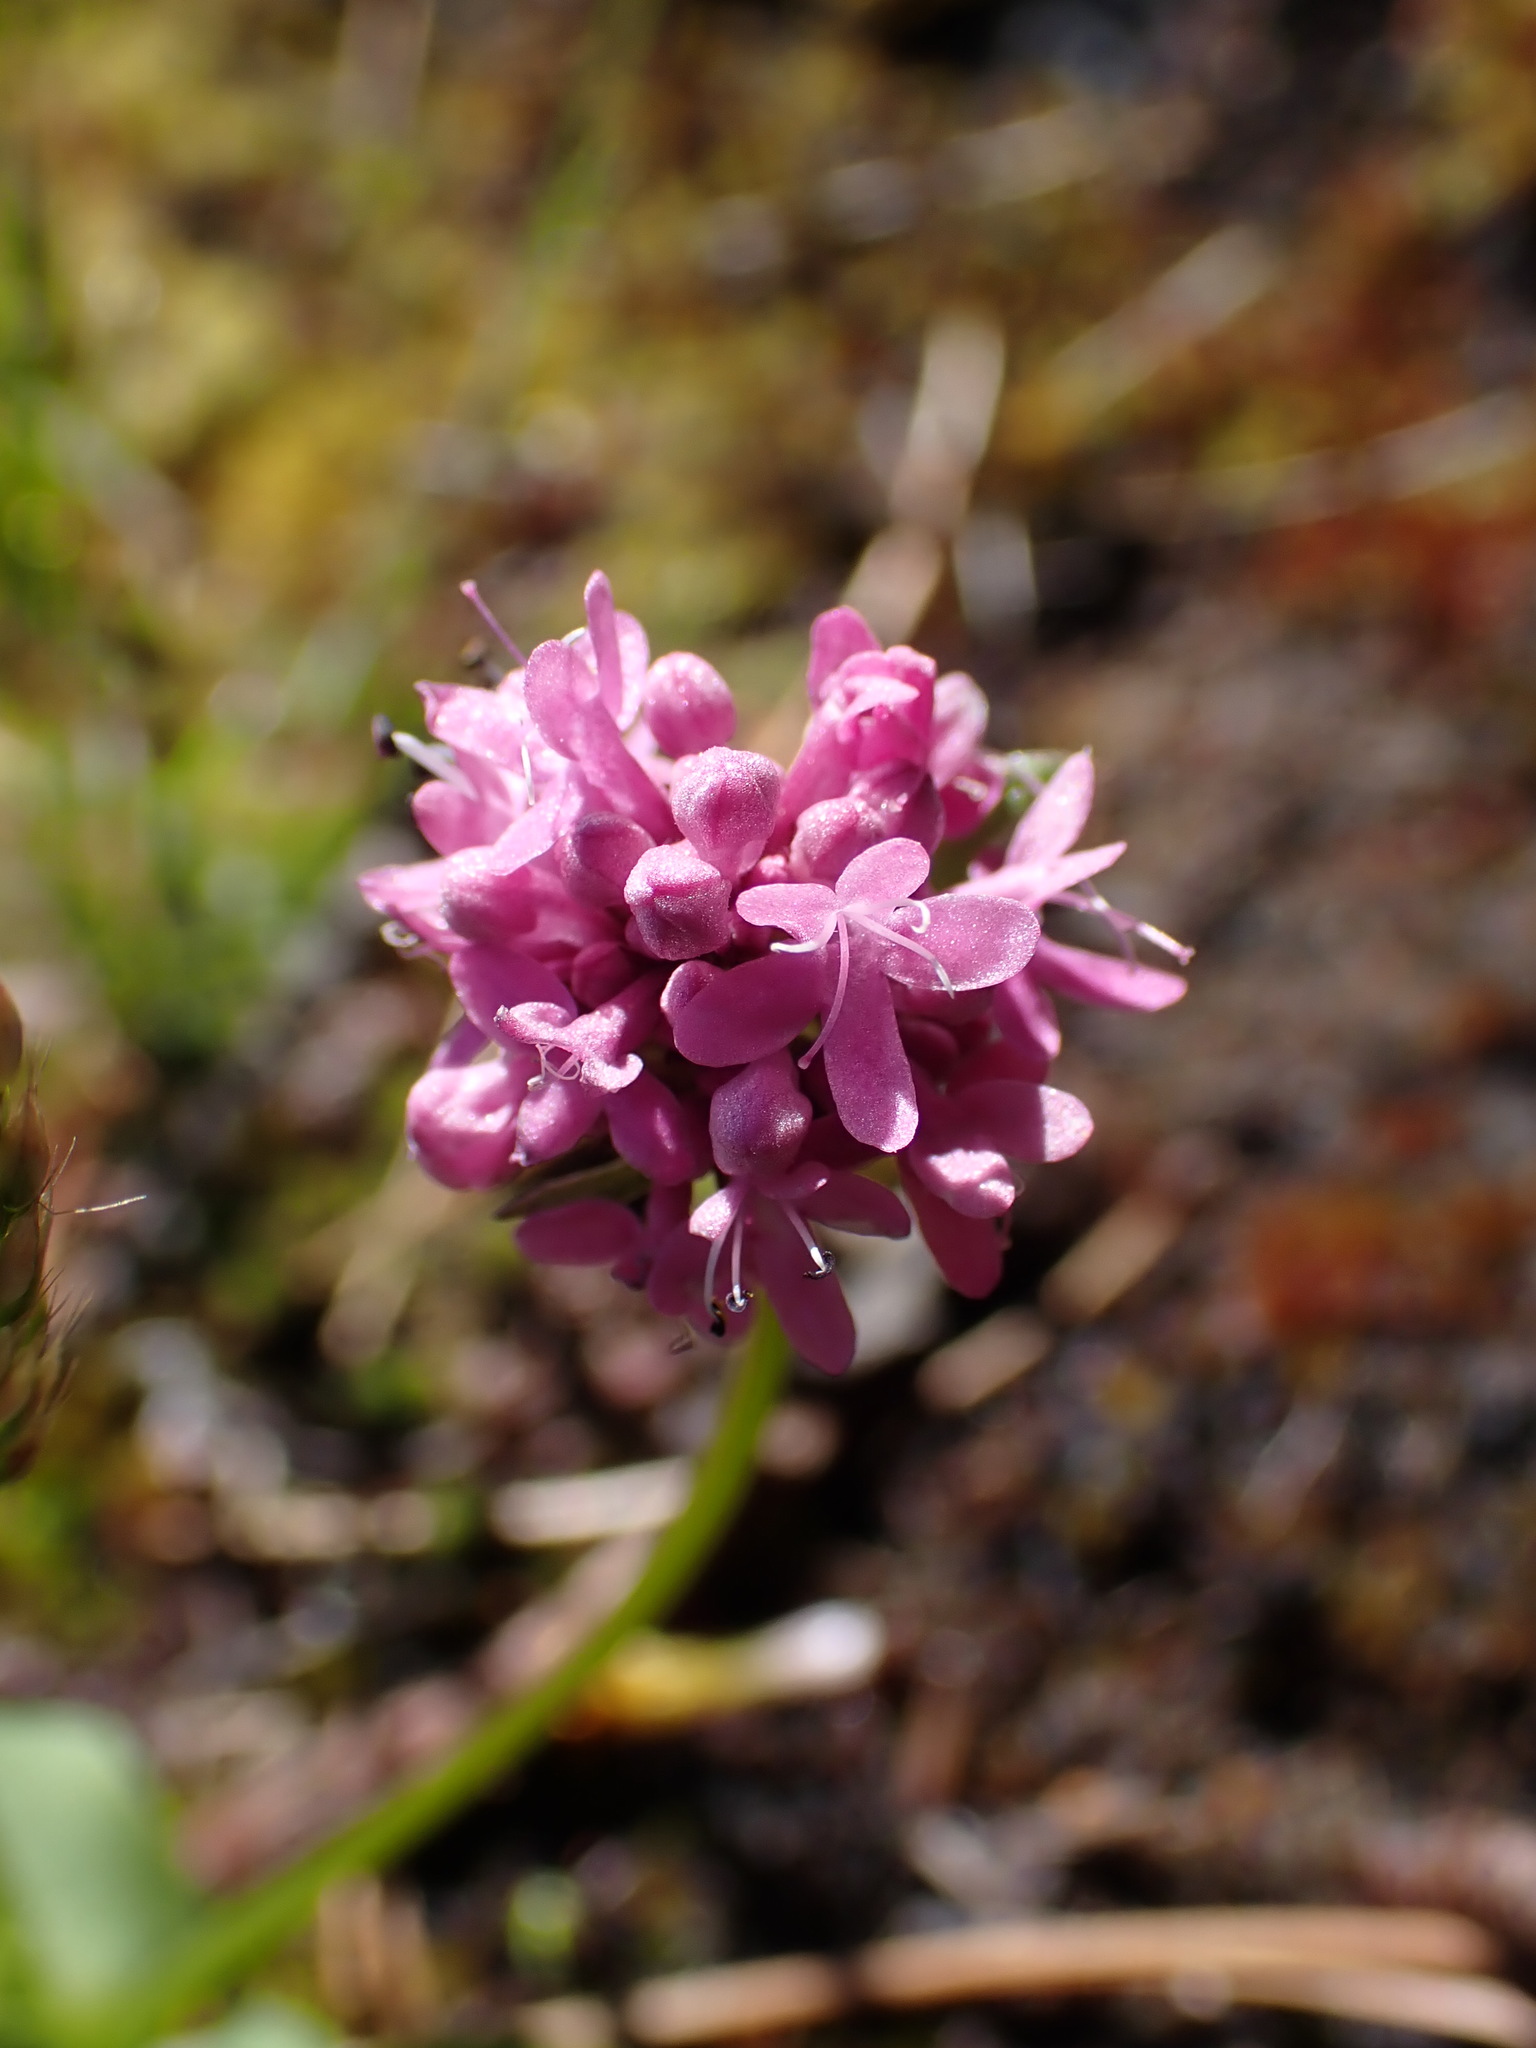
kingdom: Plantae
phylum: Tracheophyta
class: Magnoliopsida
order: Dipsacales
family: Caprifoliaceae
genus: Plectritis
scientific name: Plectritis congesta
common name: Pink plectritis
